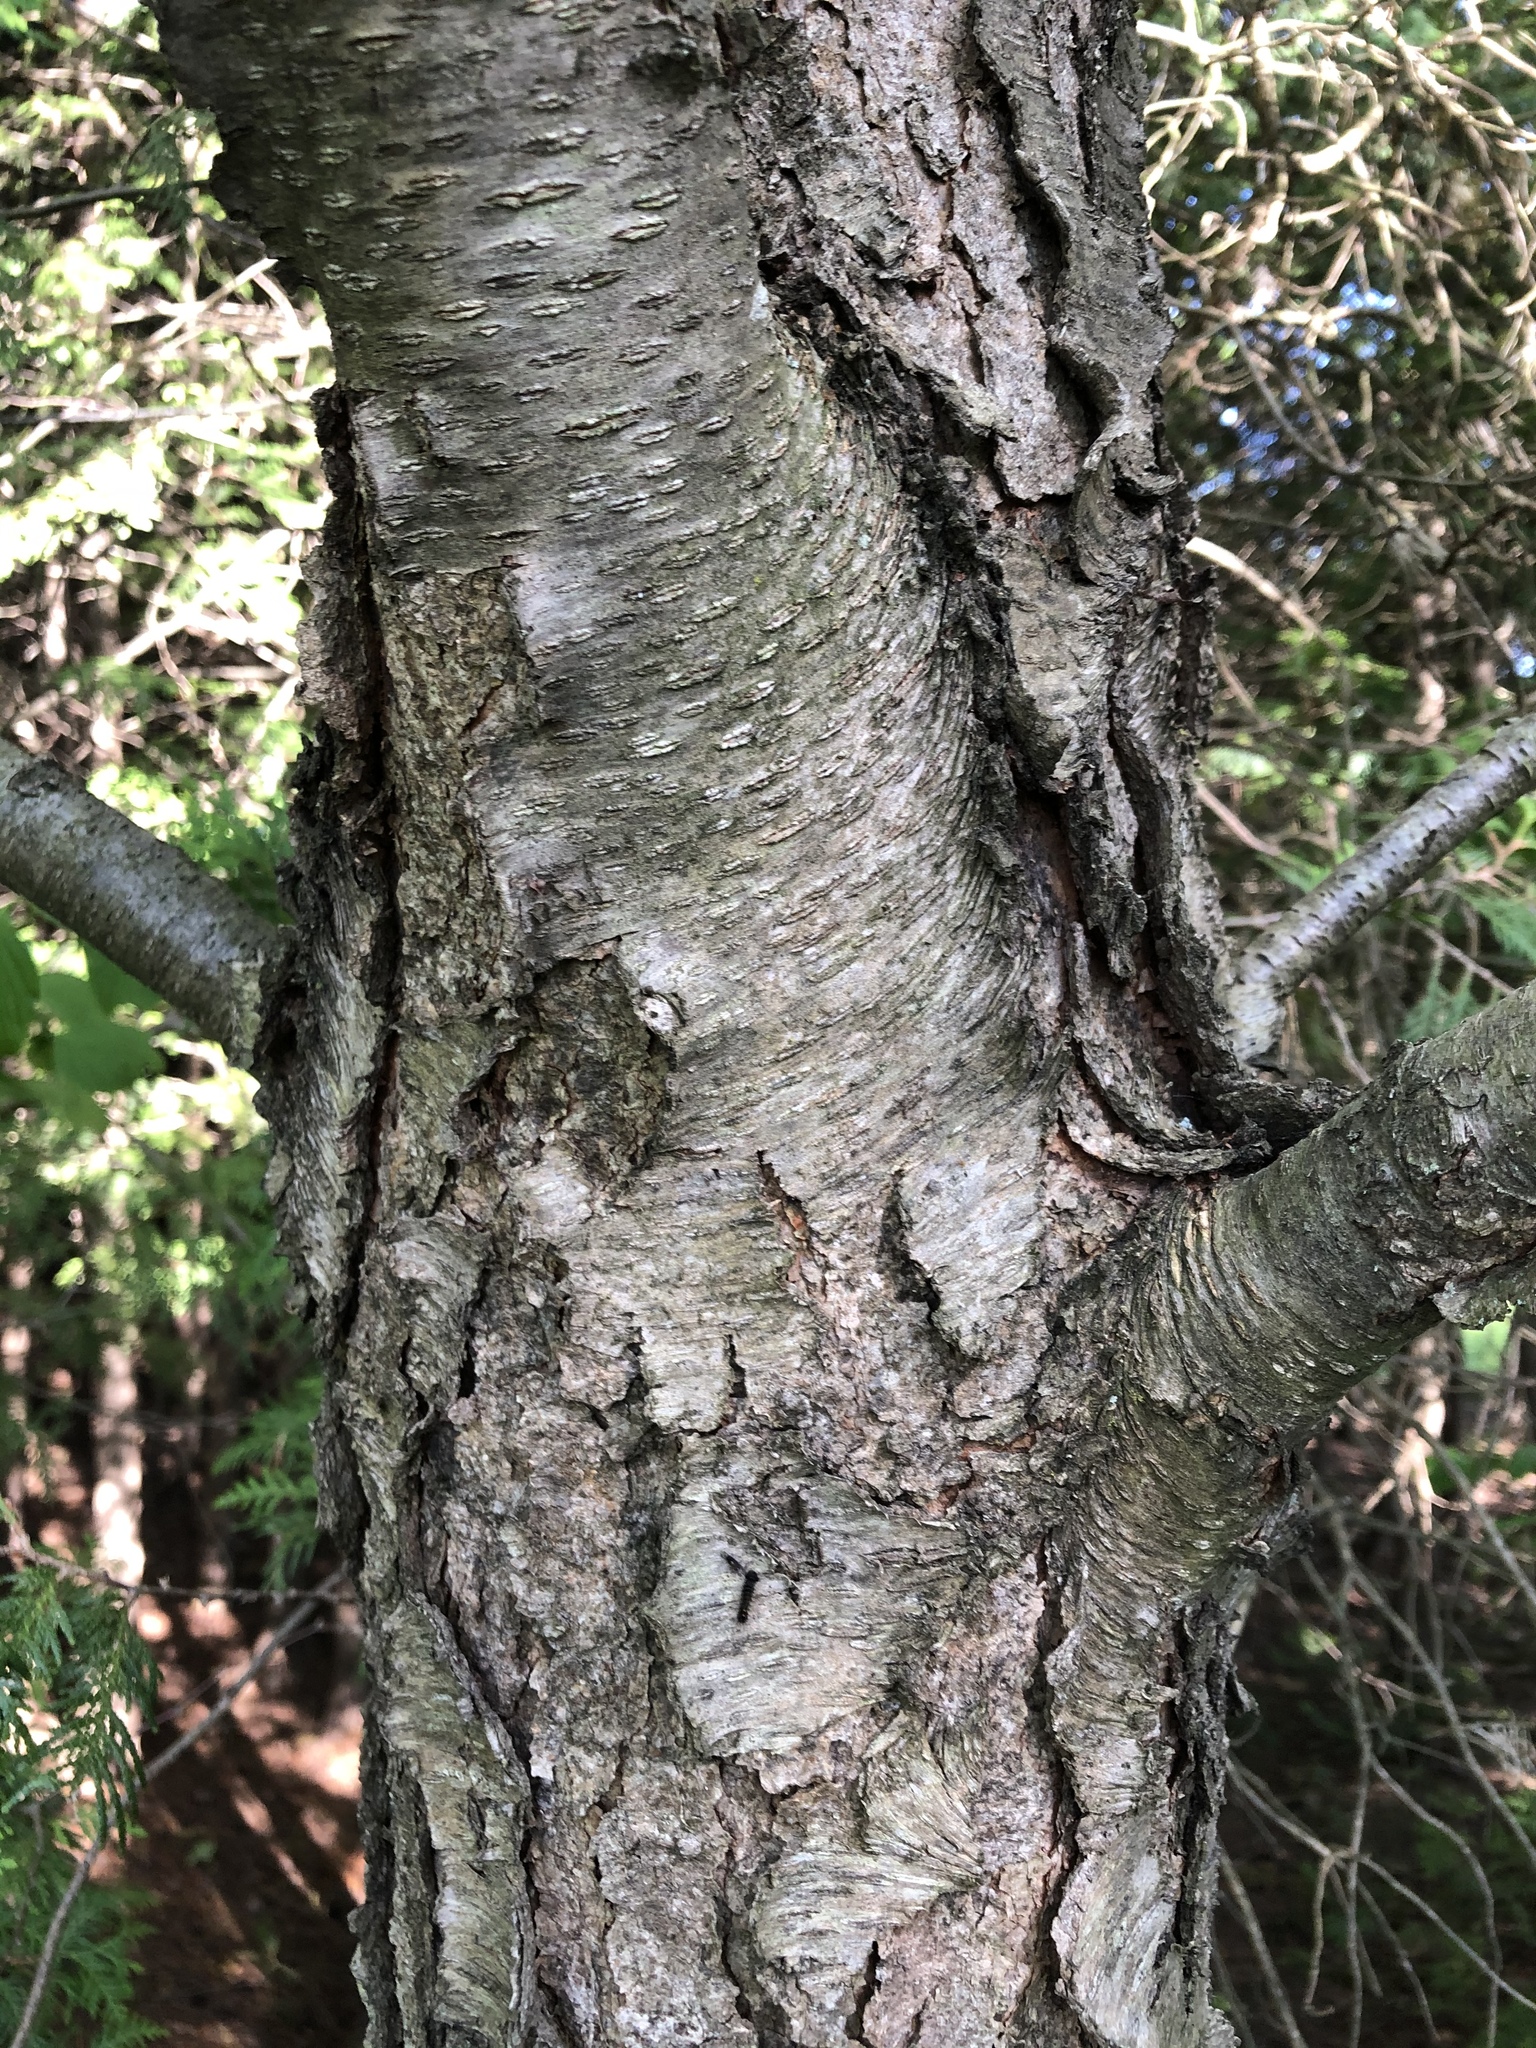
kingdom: Plantae
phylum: Tracheophyta
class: Magnoliopsida
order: Rosales
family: Rosaceae
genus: Prunus
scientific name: Prunus serotina
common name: Black cherry
